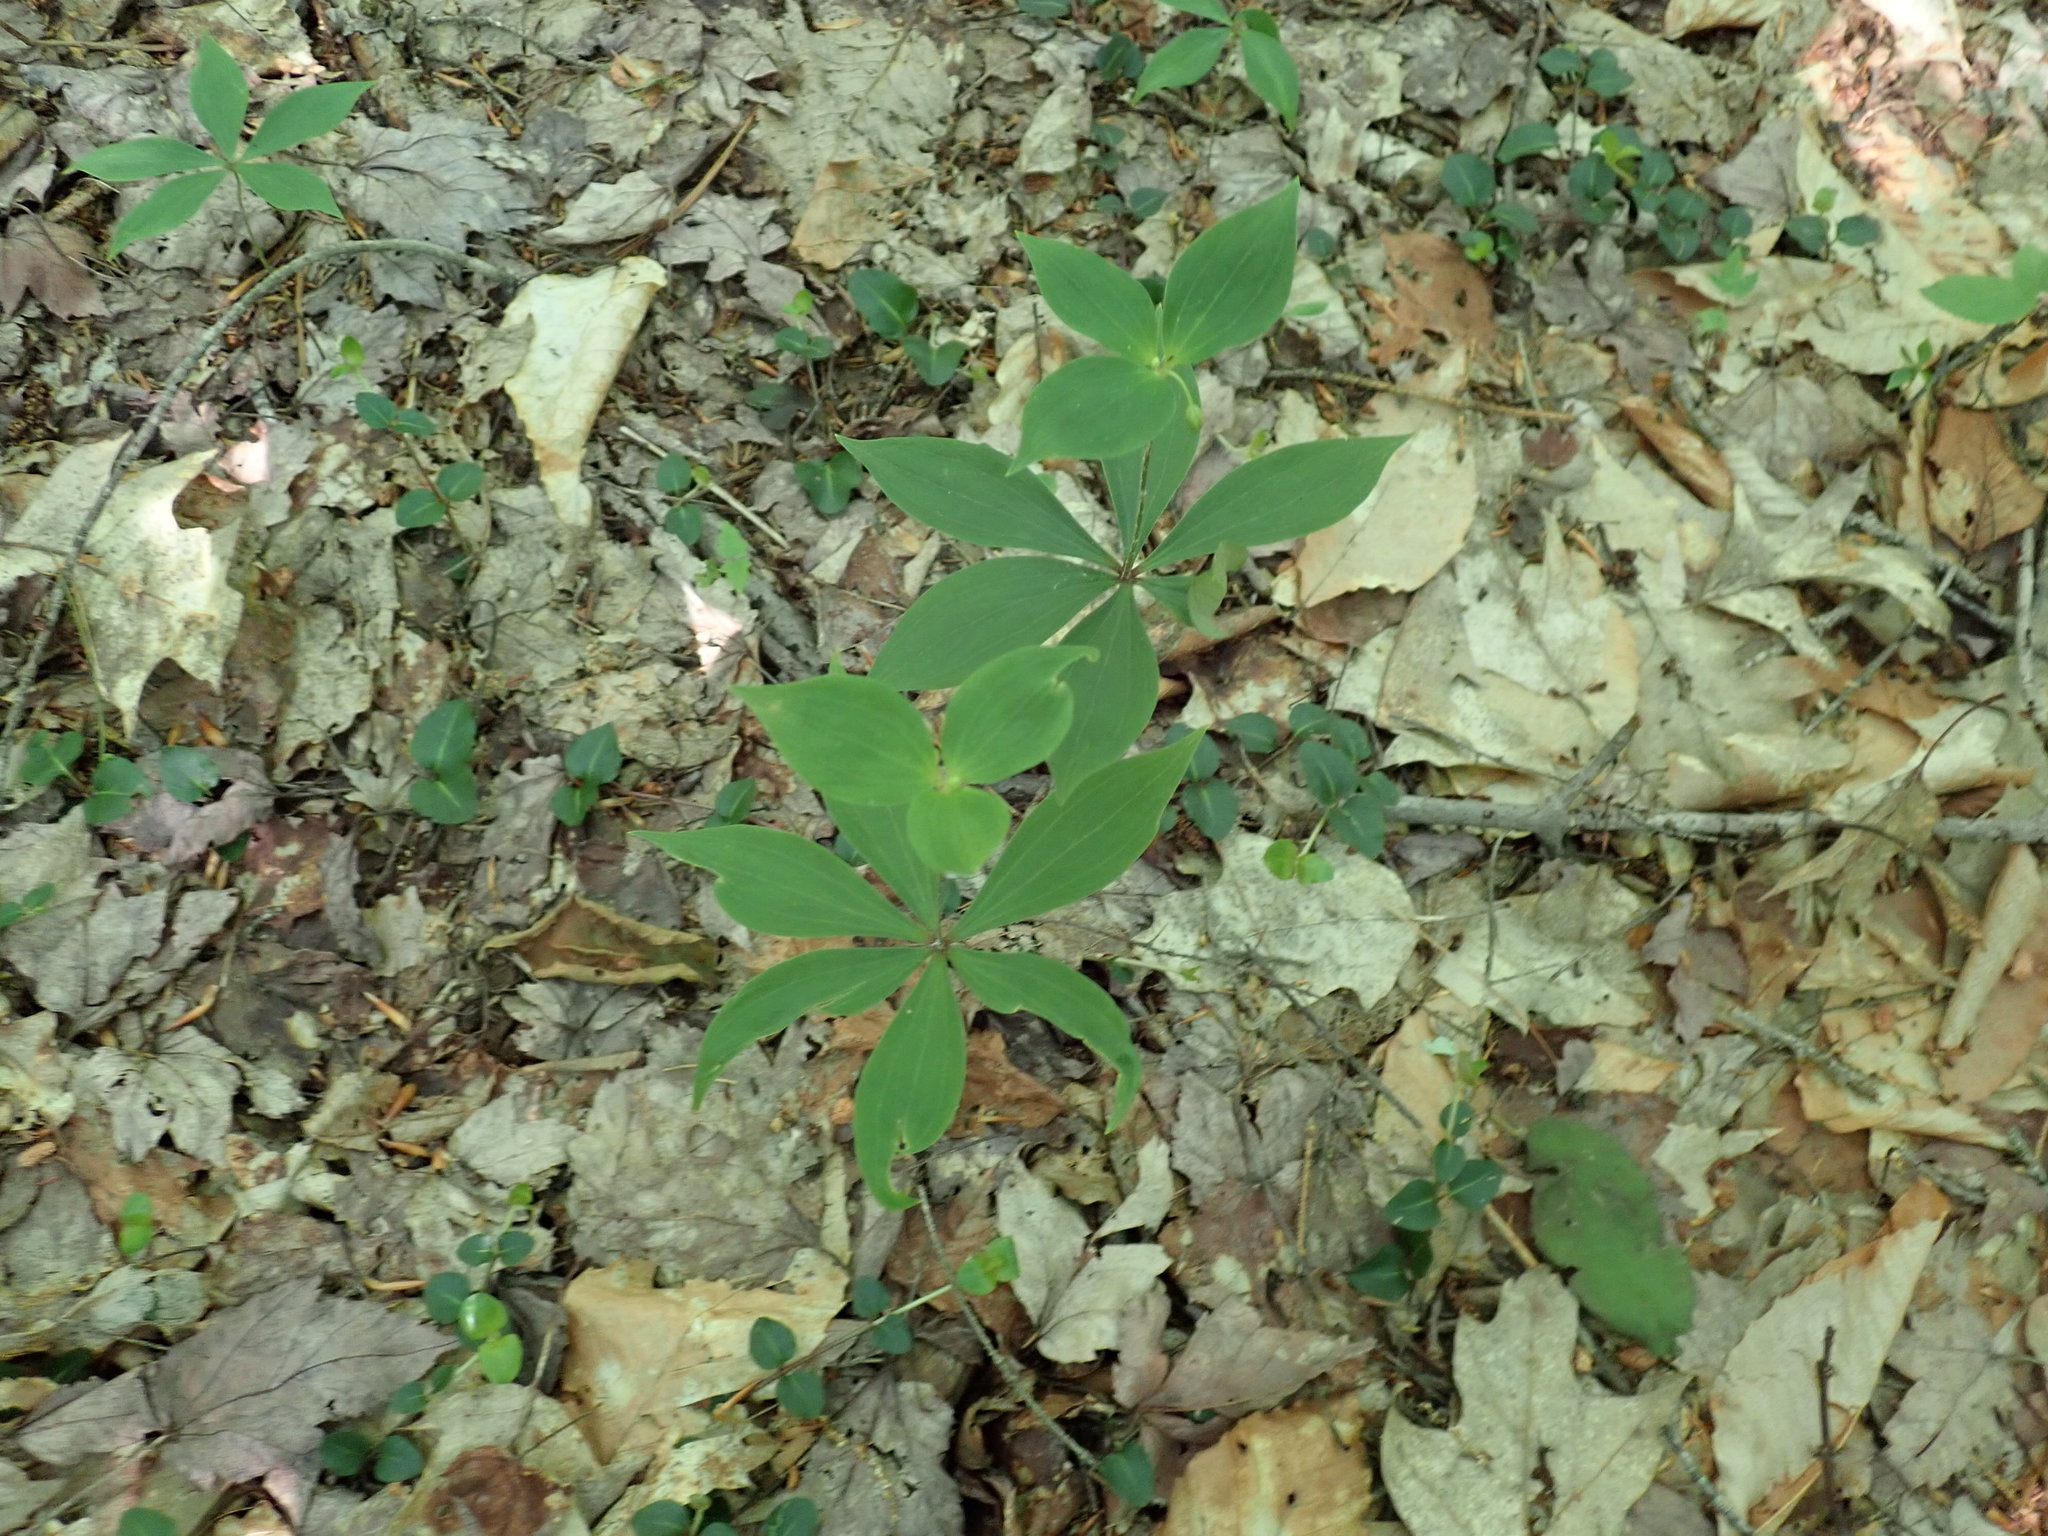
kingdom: Plantae
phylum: Tracheophyta
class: Liliopsida
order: Liliales
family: Liliaceae
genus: Medeola
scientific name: Medeola virginiana
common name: Indian cucumber-root
